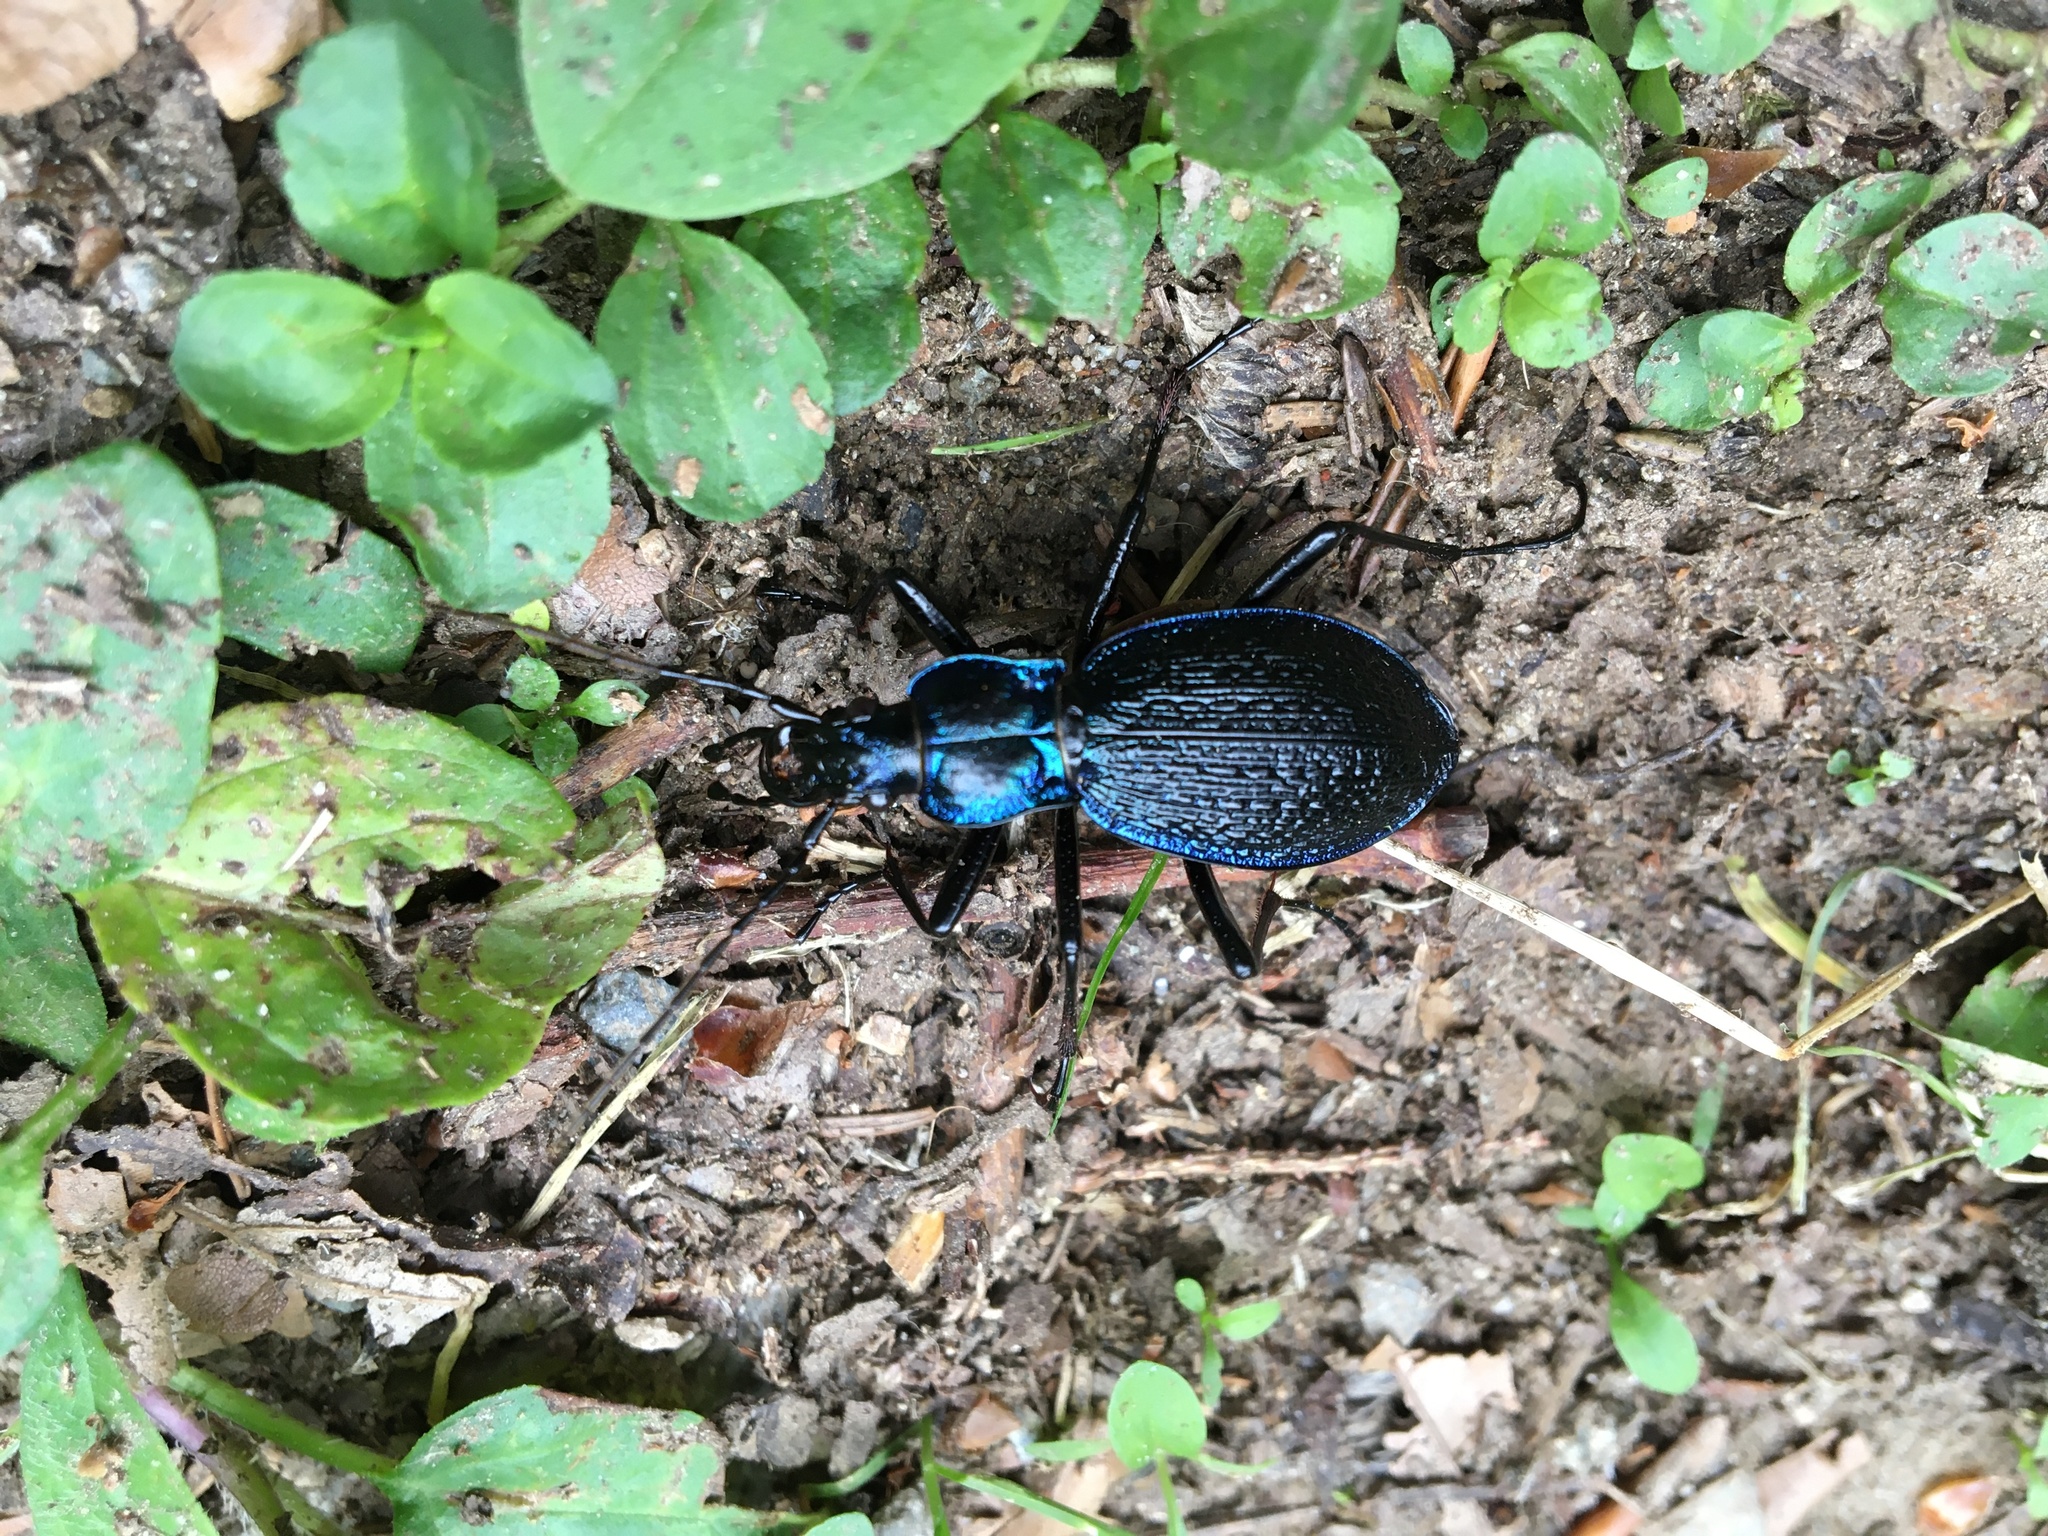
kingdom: Animalia
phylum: Arthropoda
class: Insecta
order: Coleoptera
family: Carabidae
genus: Carabus
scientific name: Carabus intricatus
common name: Blue ground beetle
